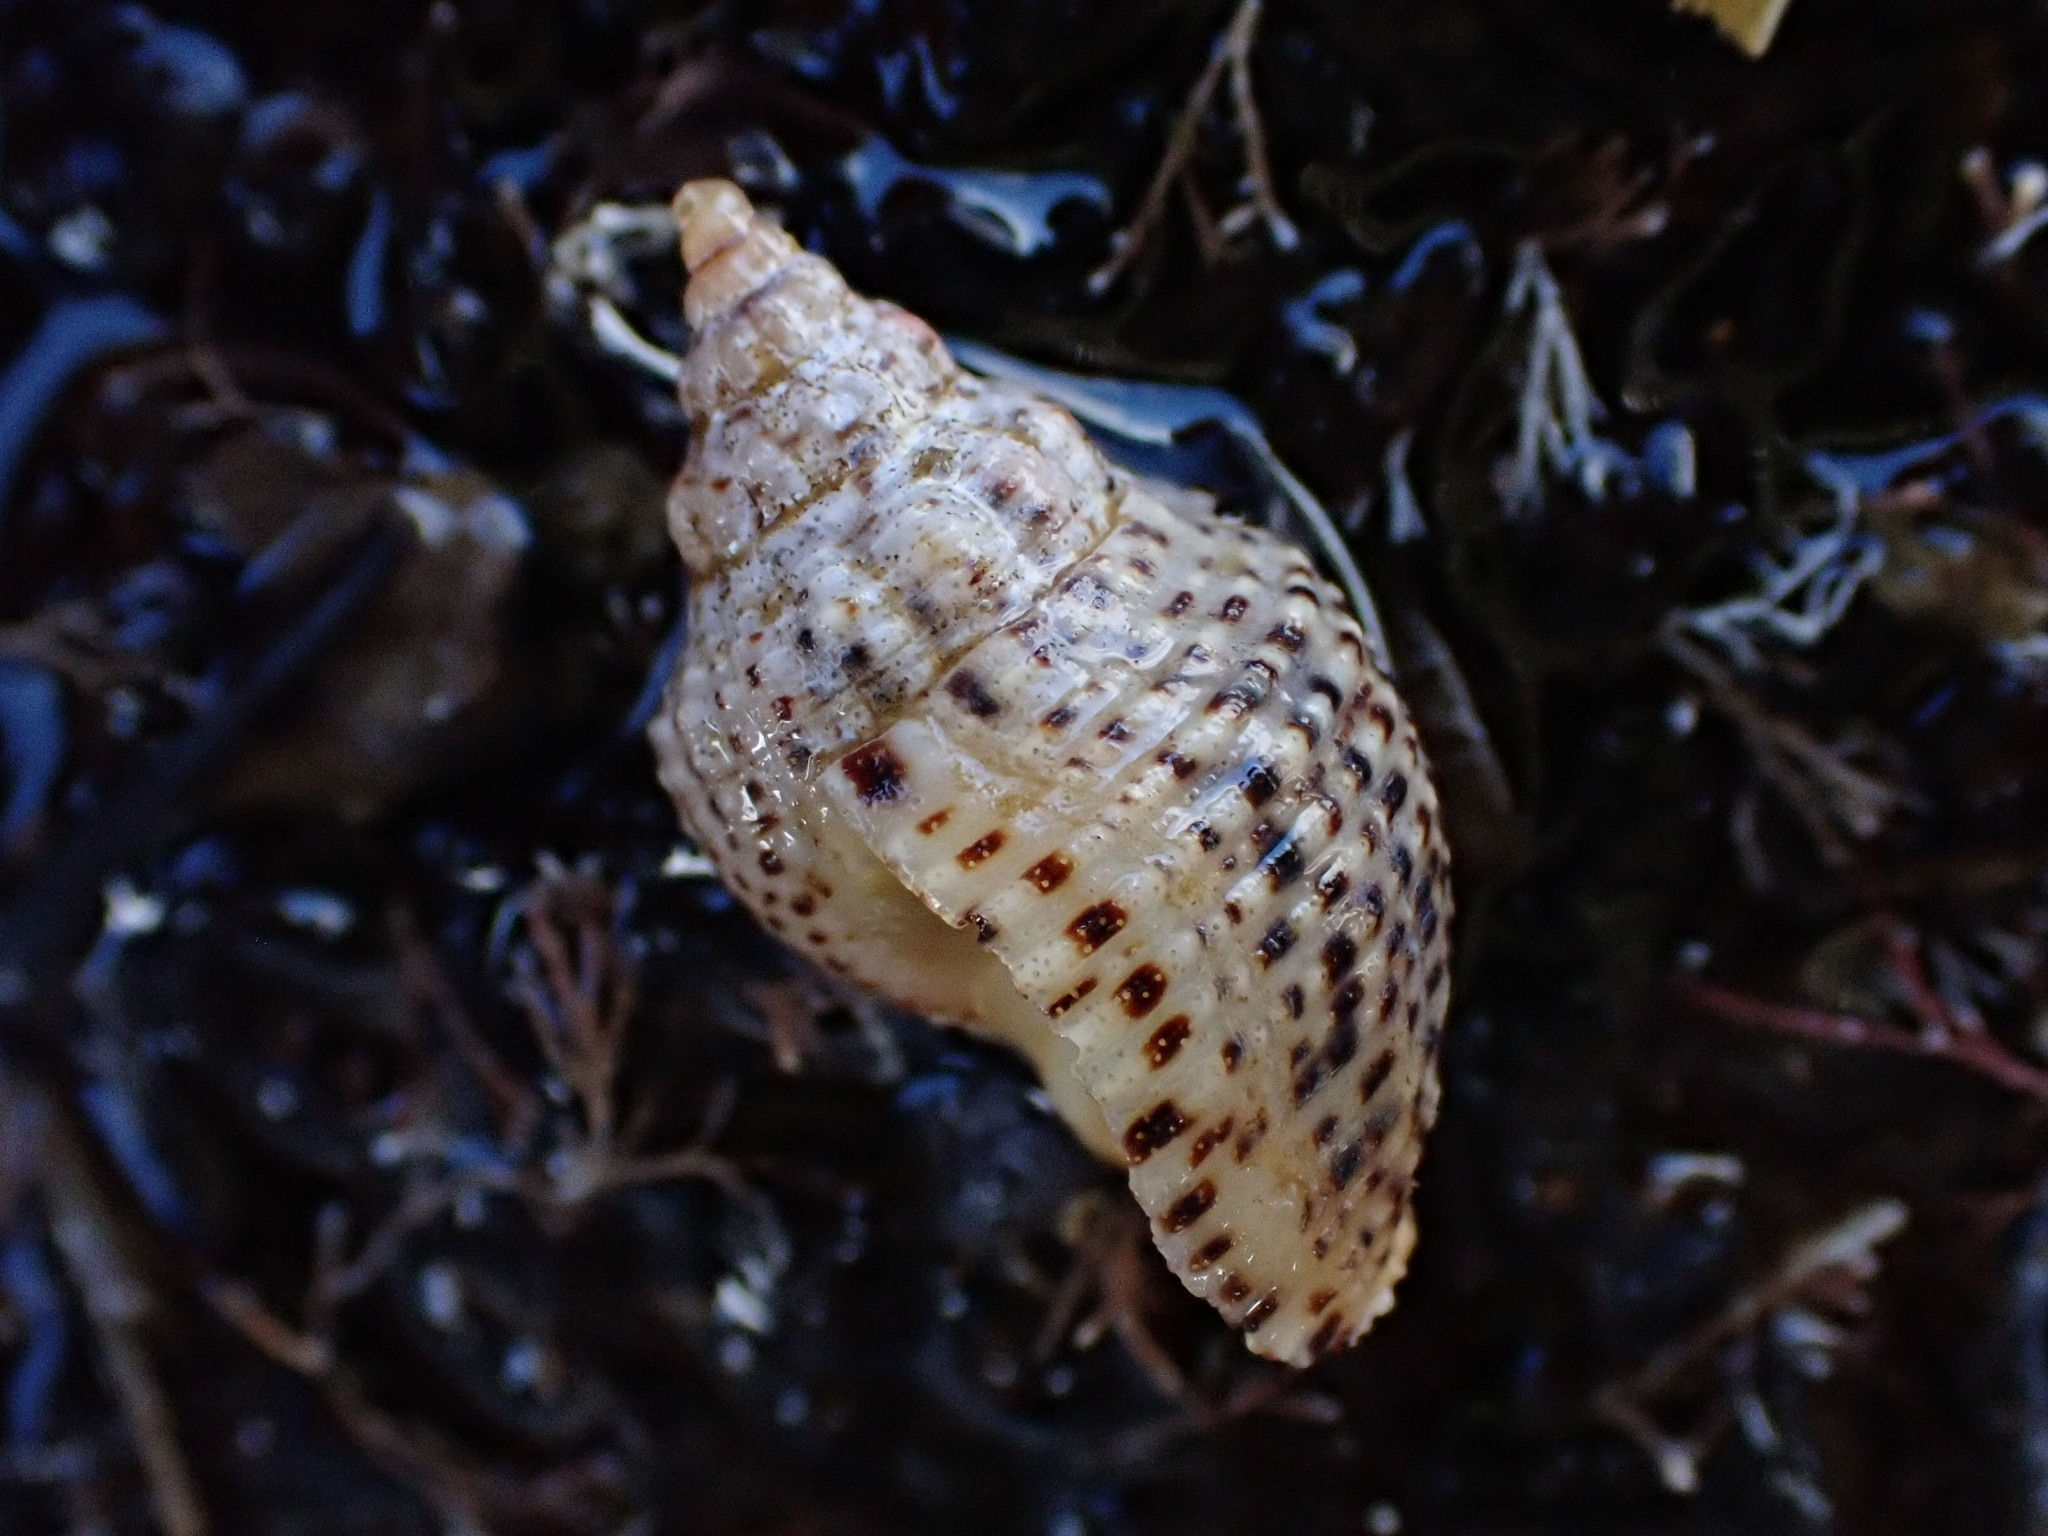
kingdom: Animalia
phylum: Mollusca
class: Gastropoda
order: Neogastropoda
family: Cominellidae
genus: Cominella
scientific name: Cominella adspersa
